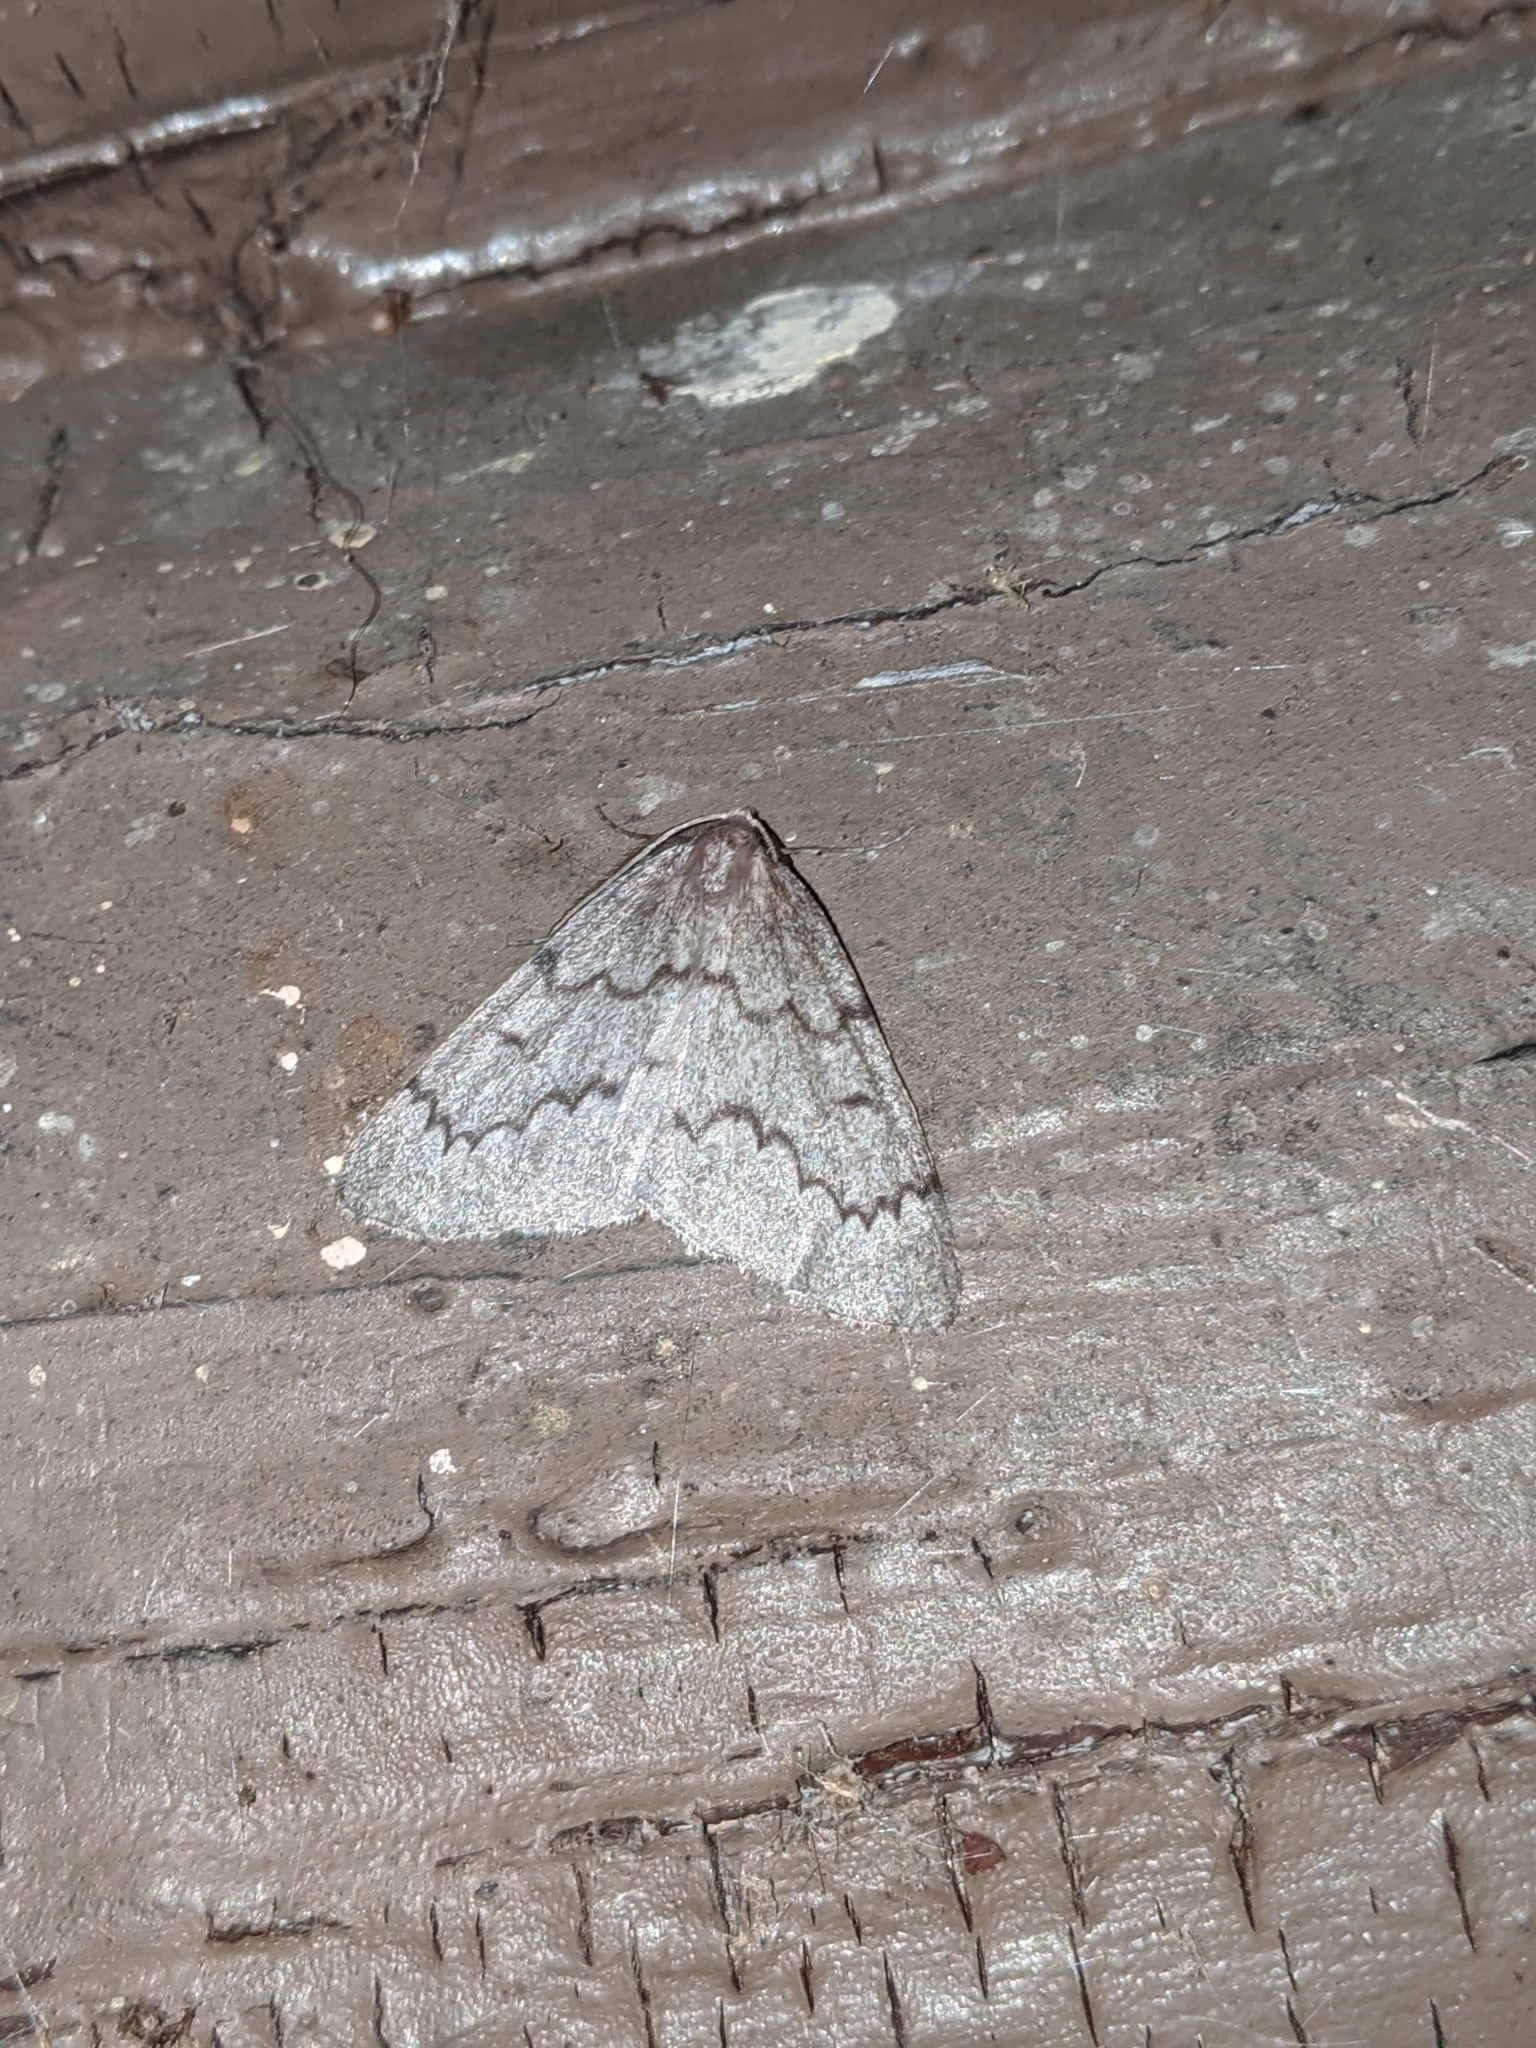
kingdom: Animalia
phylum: Arthropoda
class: Insecta
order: Lepidoptera
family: Geometridae
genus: Nepytia
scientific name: Nepytia pellucidaria
